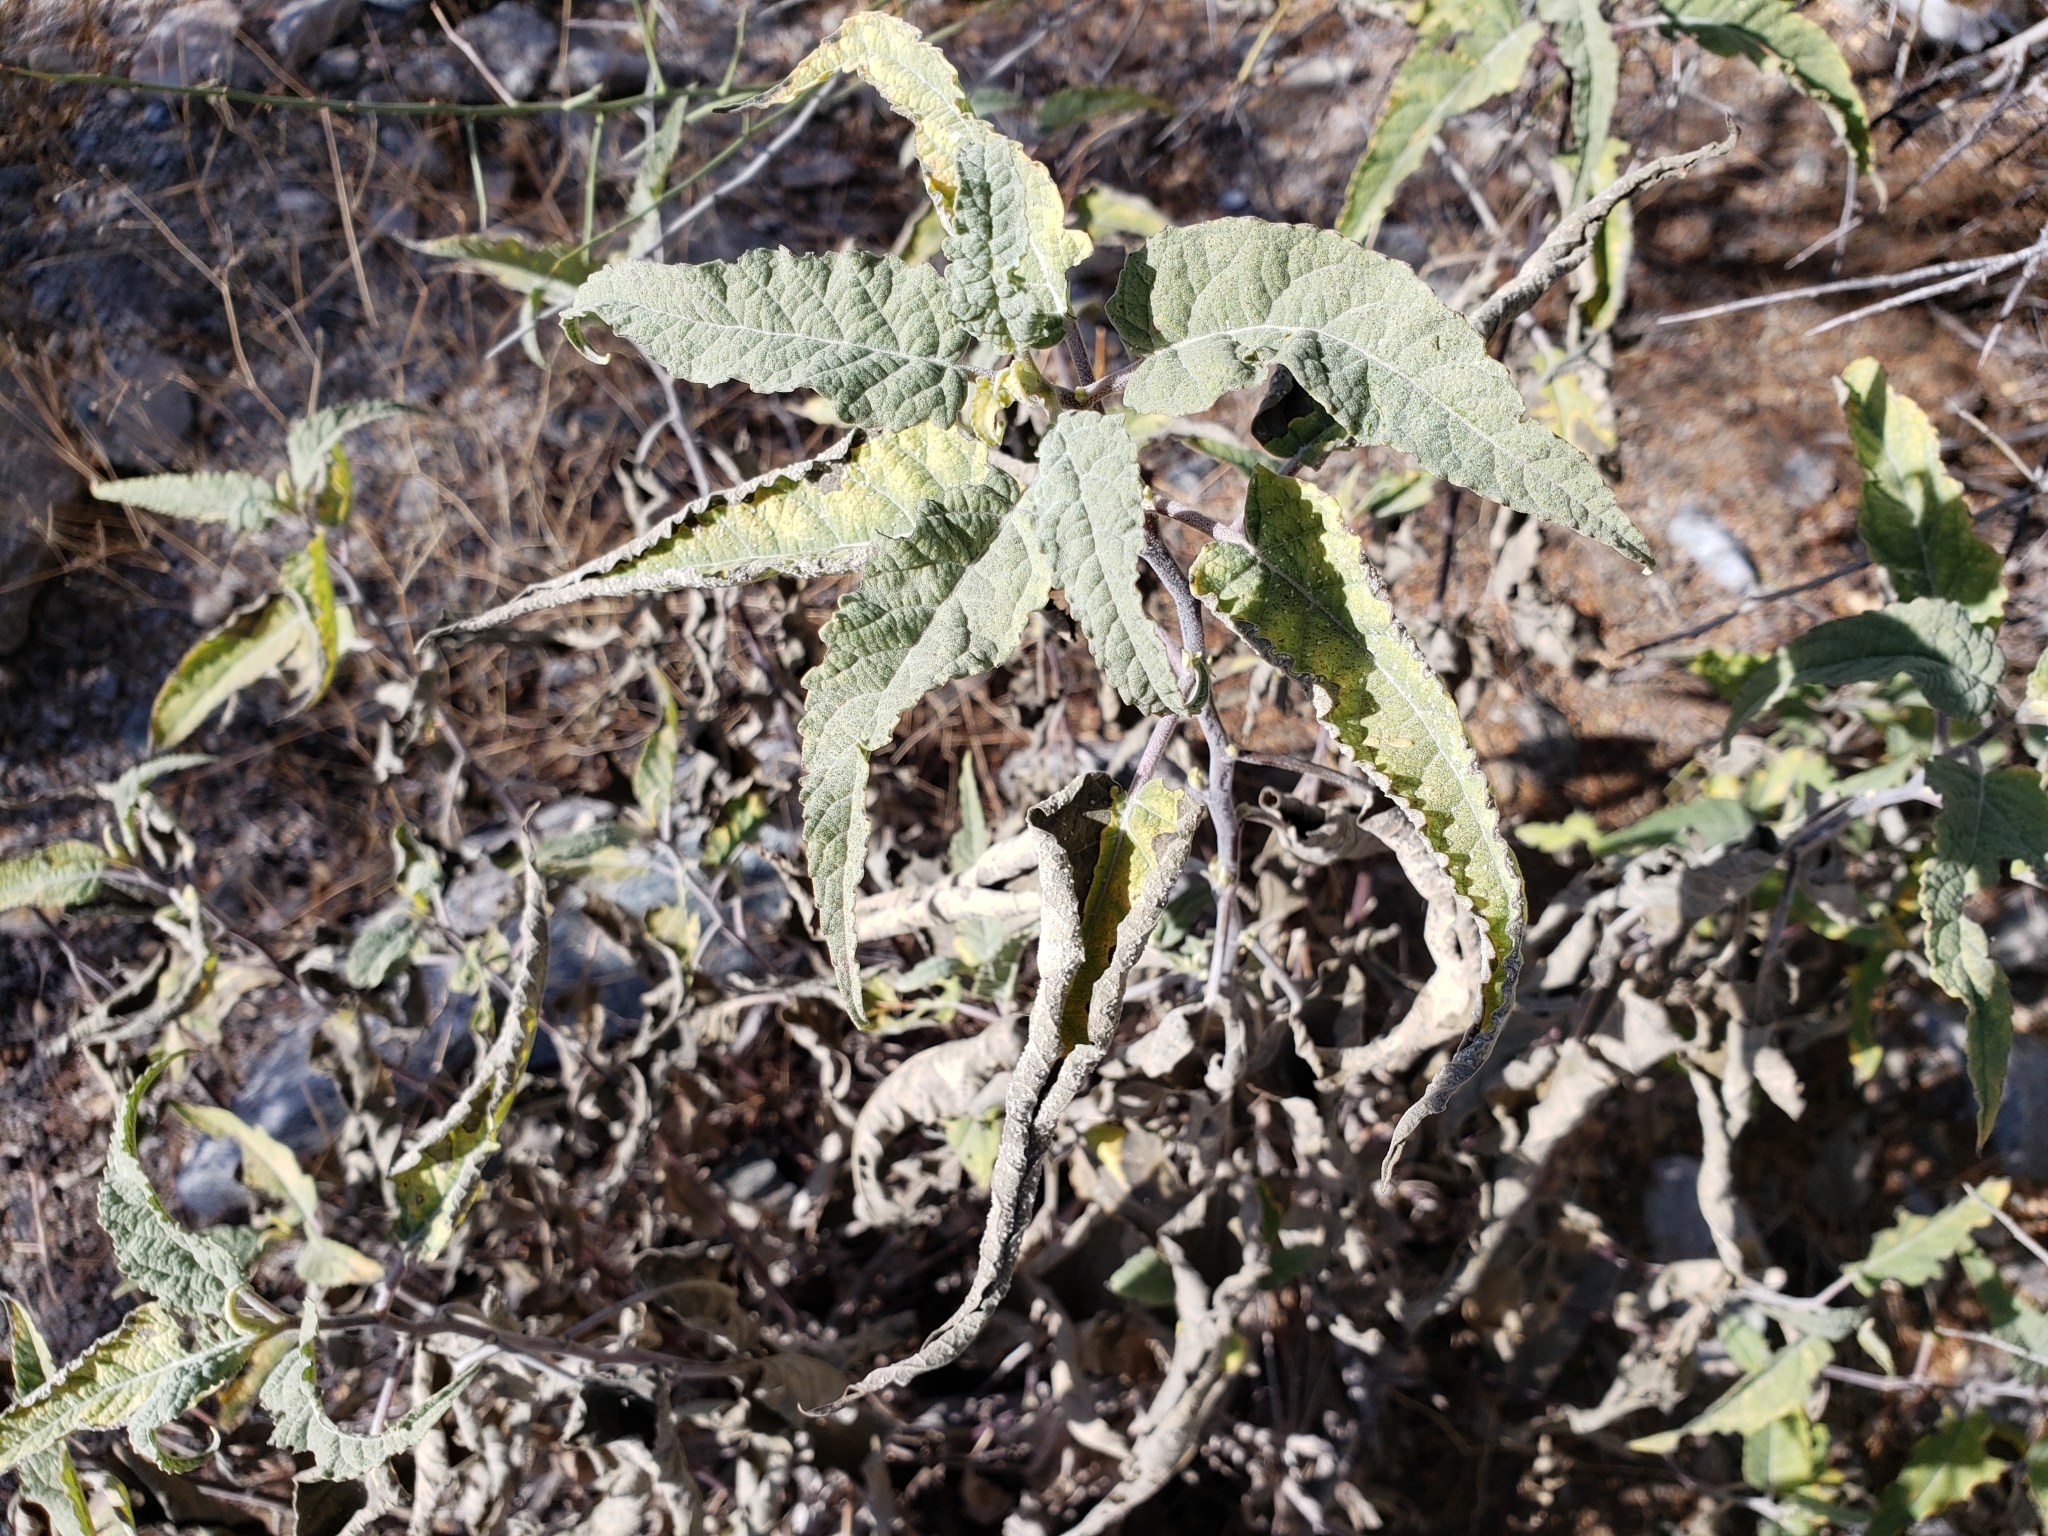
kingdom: Plantae
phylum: Tracheophyta
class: Magnoliopsida
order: Asterales
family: Asteraceae
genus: Ambrosia
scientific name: Ambrosia ambrosioides
